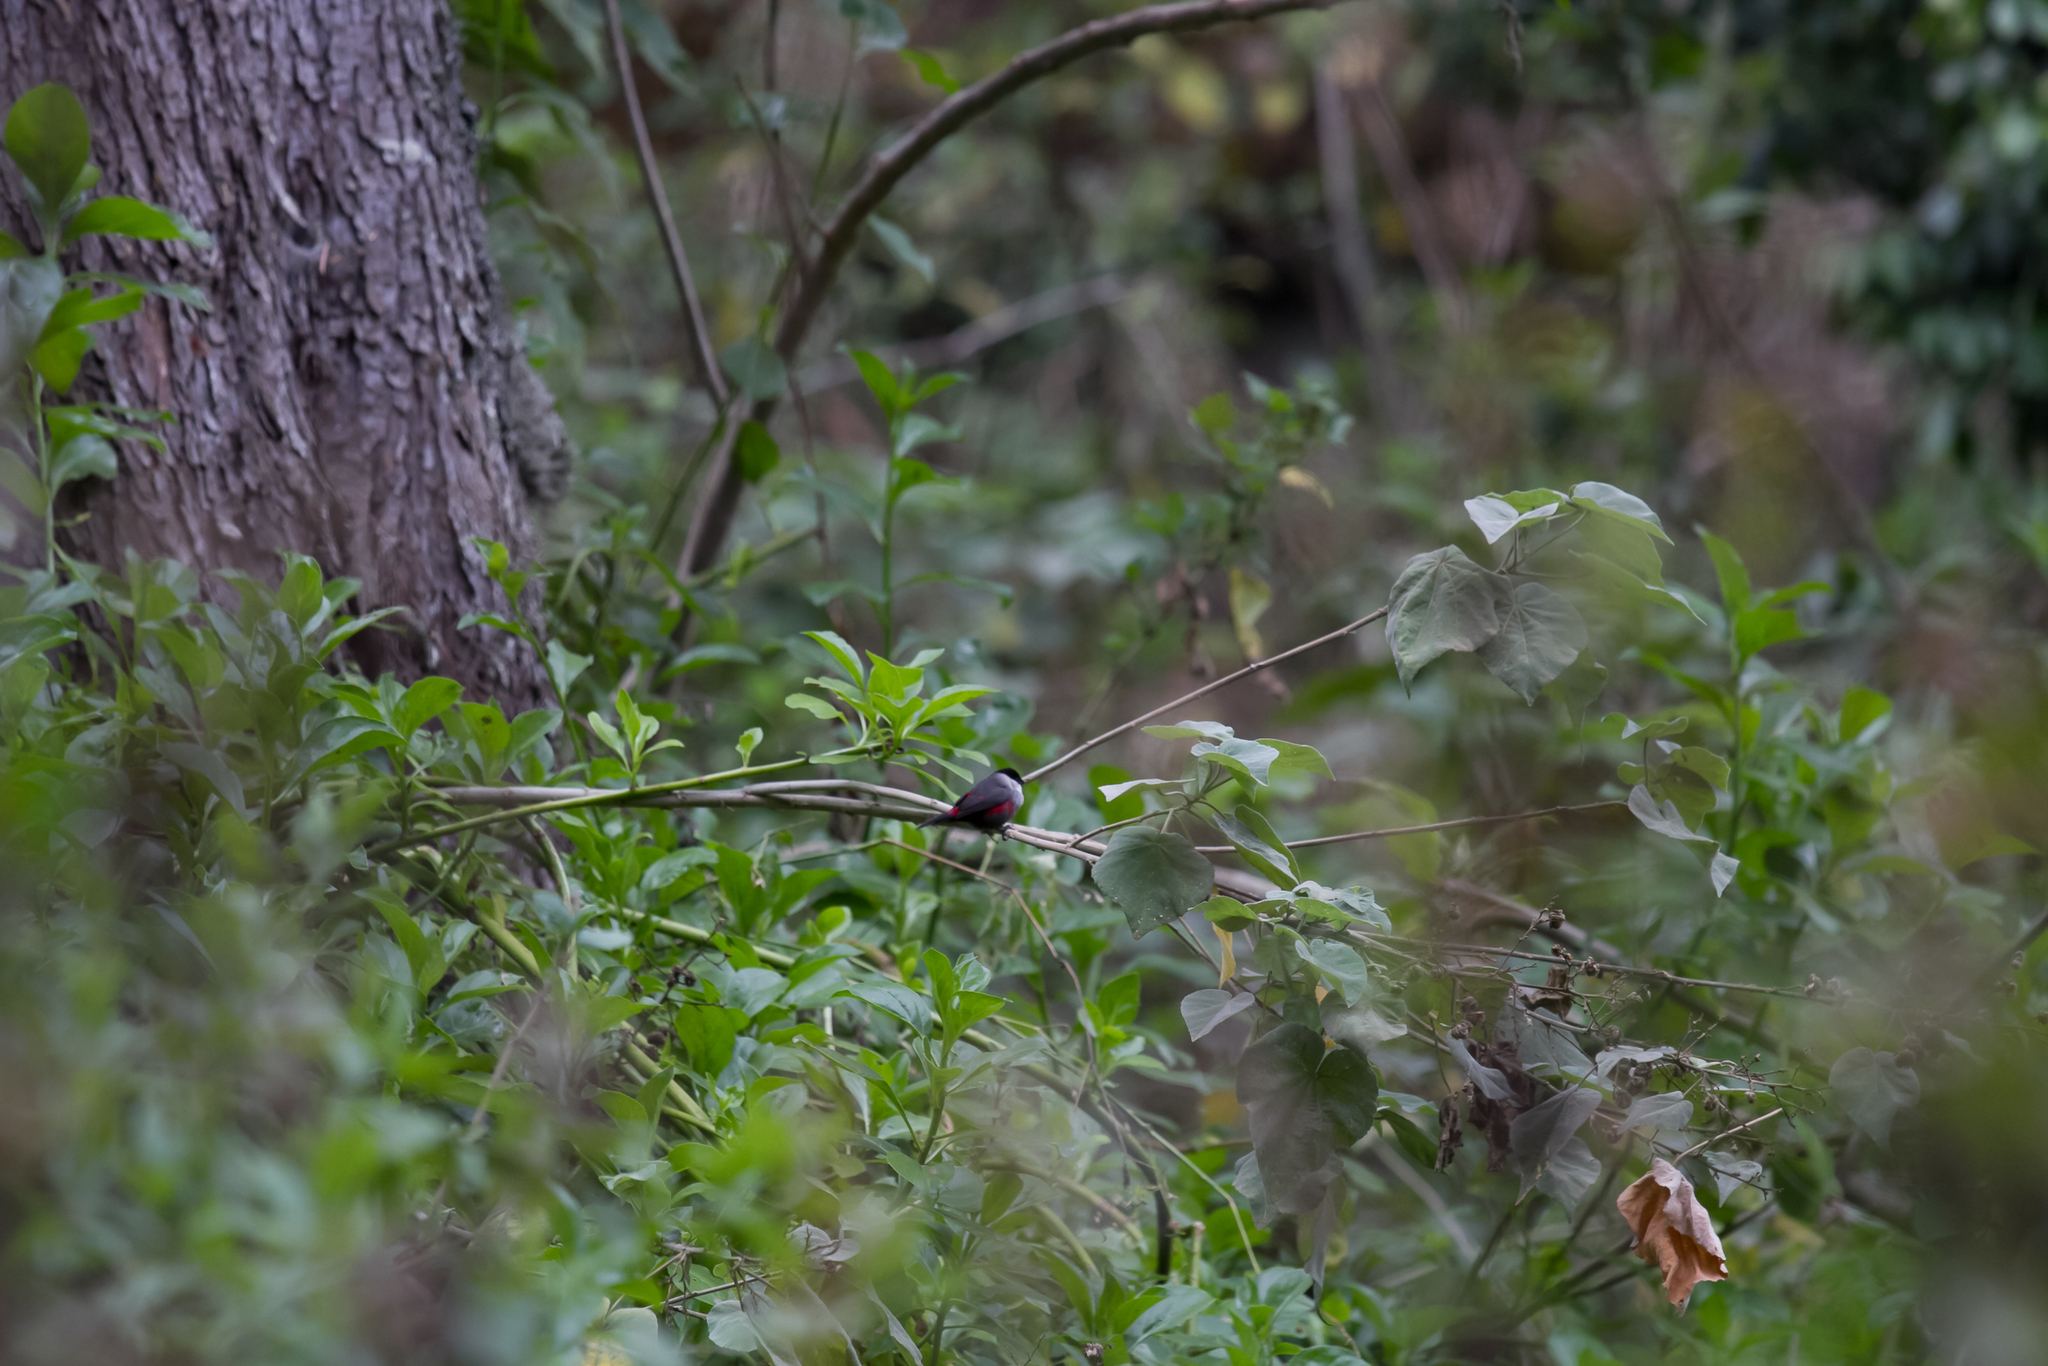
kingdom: Animalia
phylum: Chordata
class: Aves
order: Passeriformes
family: Estrildidae
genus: Estrilda
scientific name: Estrilda nonnula
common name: Black-crowned waxbill
